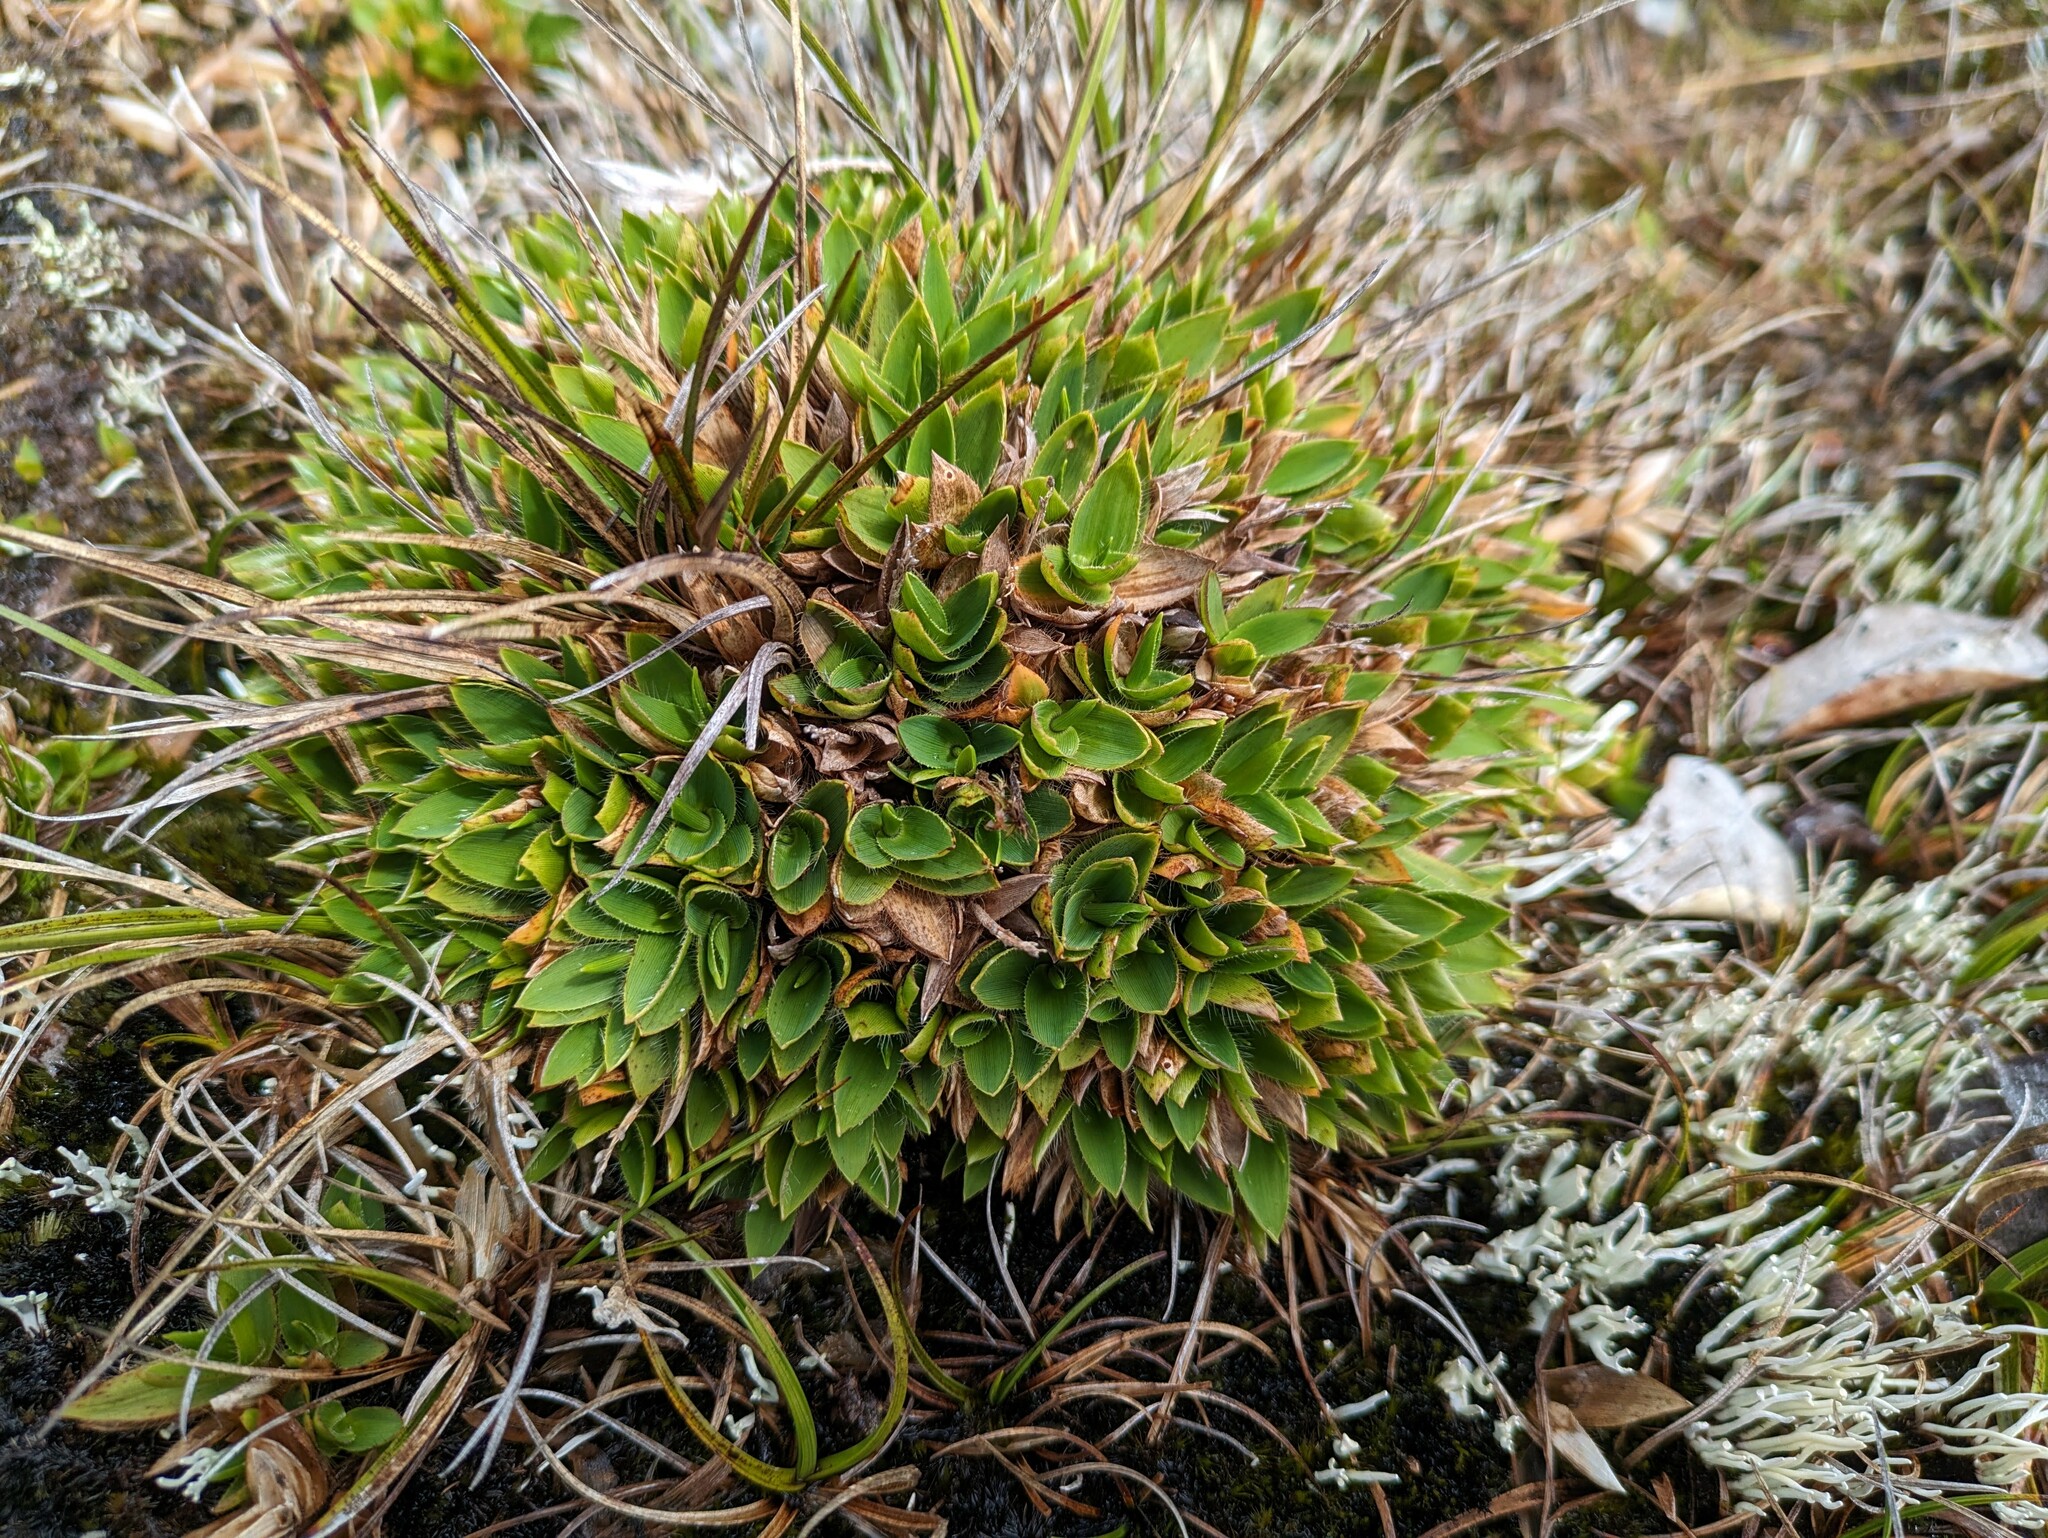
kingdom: Plantae
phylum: Tracheophyta
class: Liliopsida
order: Poales
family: Poaceae
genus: Dichanthelium
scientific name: Dichanthelium isachnoides
